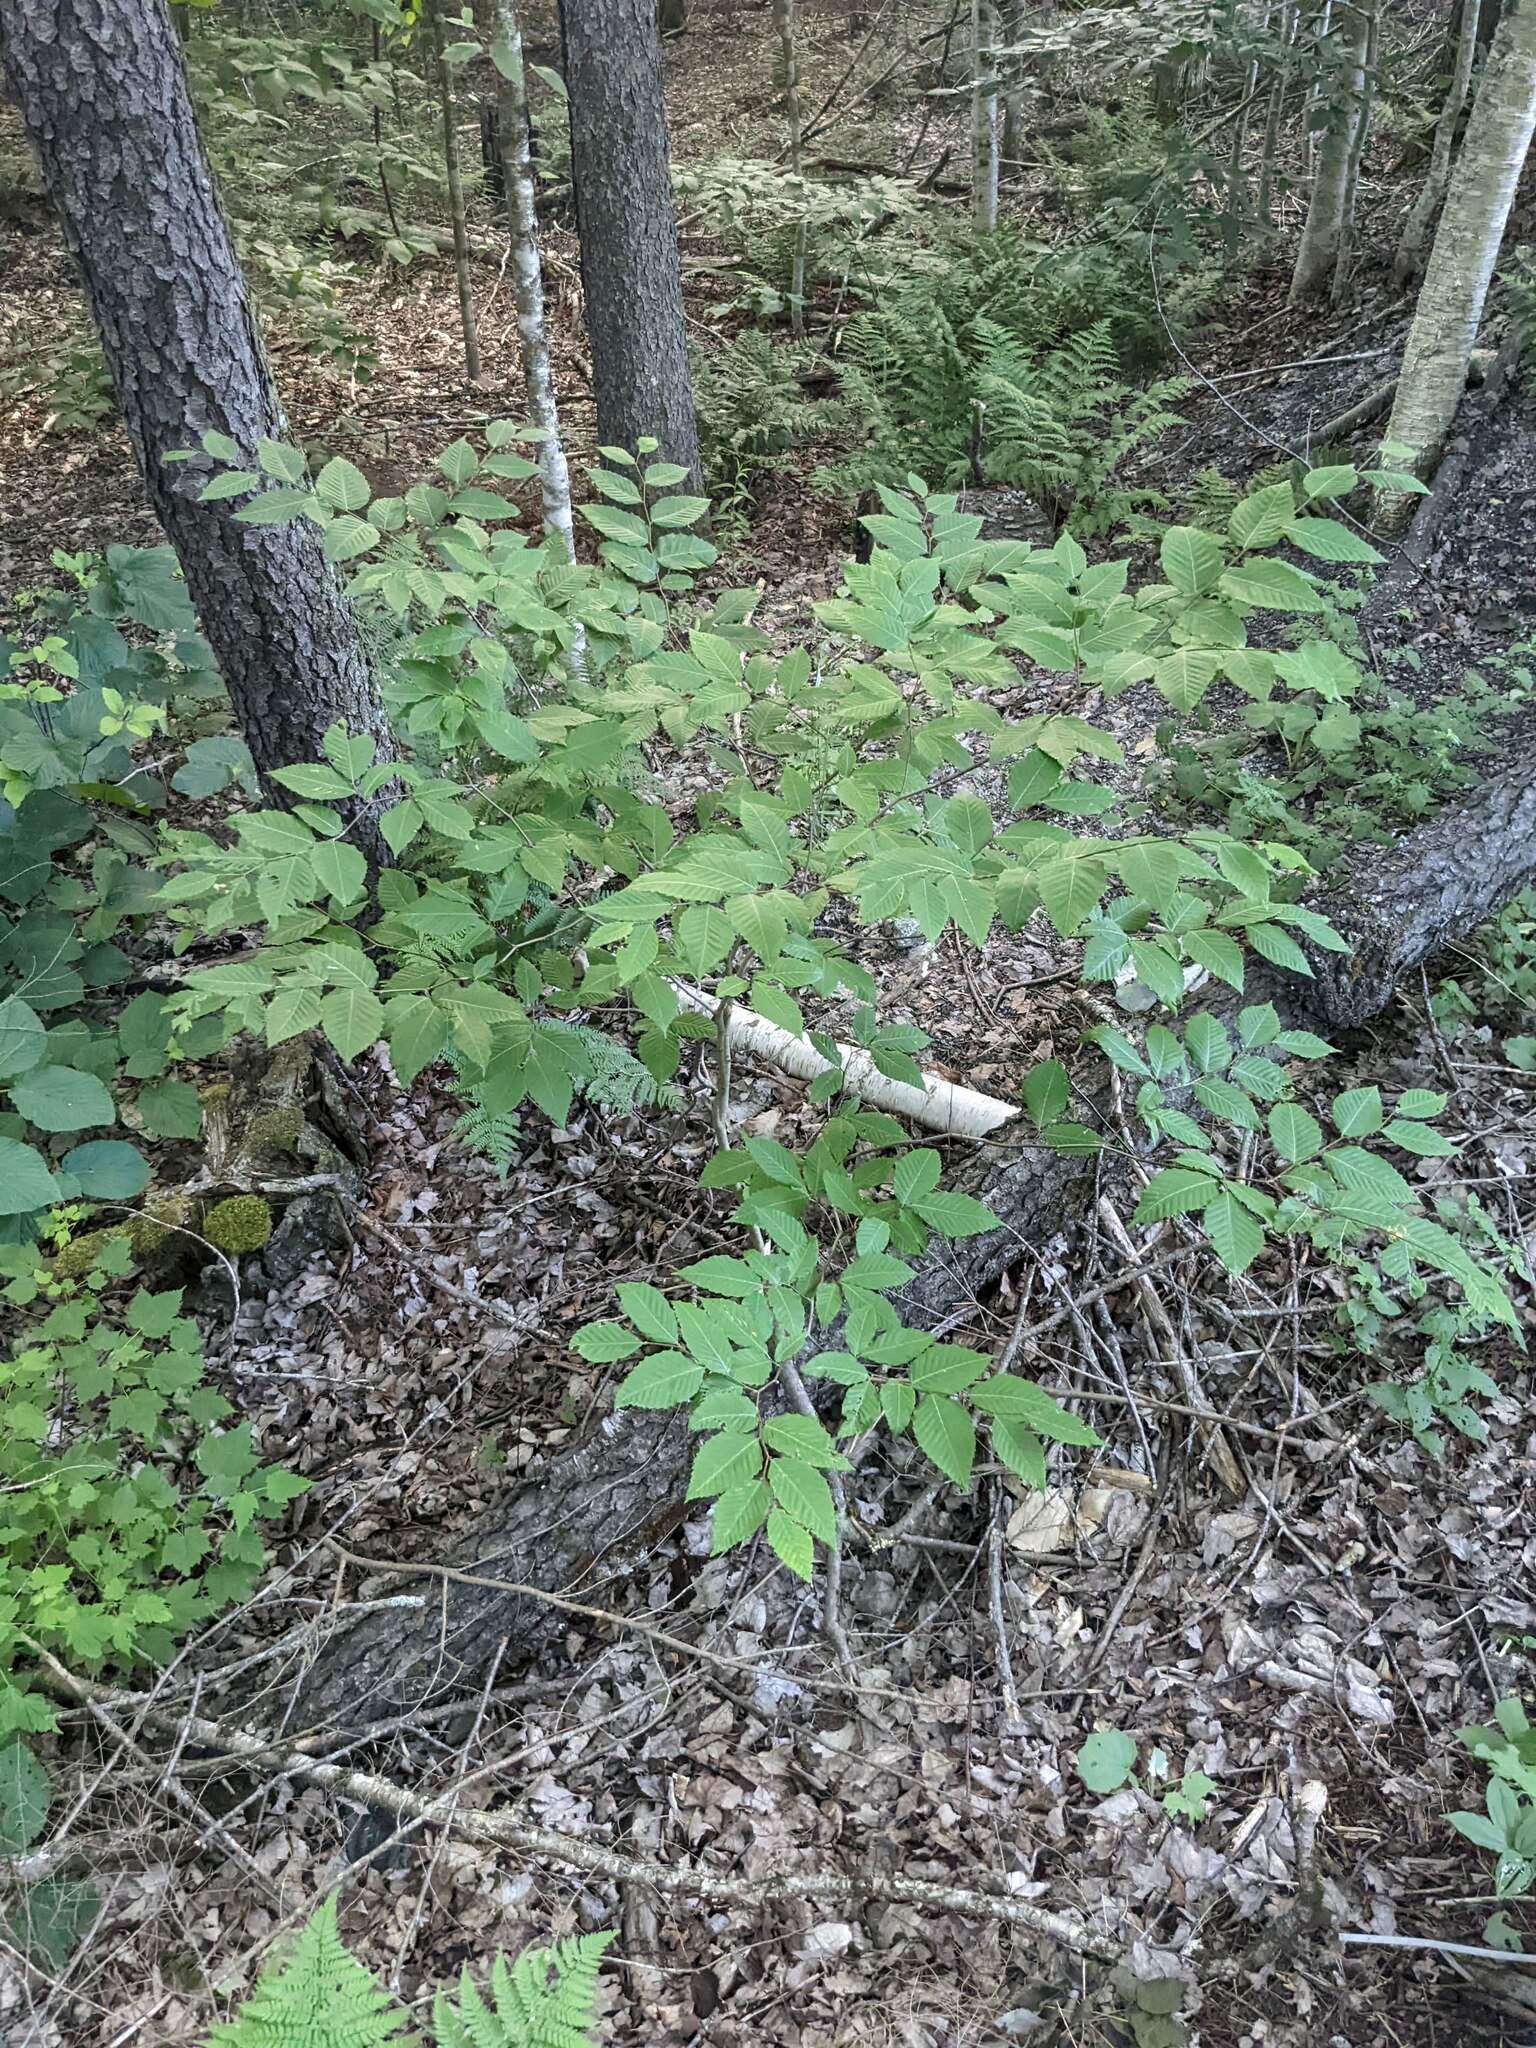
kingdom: Plantae
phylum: Tracheophyta
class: Magnoliopsida
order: Fagales
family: Fagaceae
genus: Fagus
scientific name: Fagus grandifolia
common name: American beech
